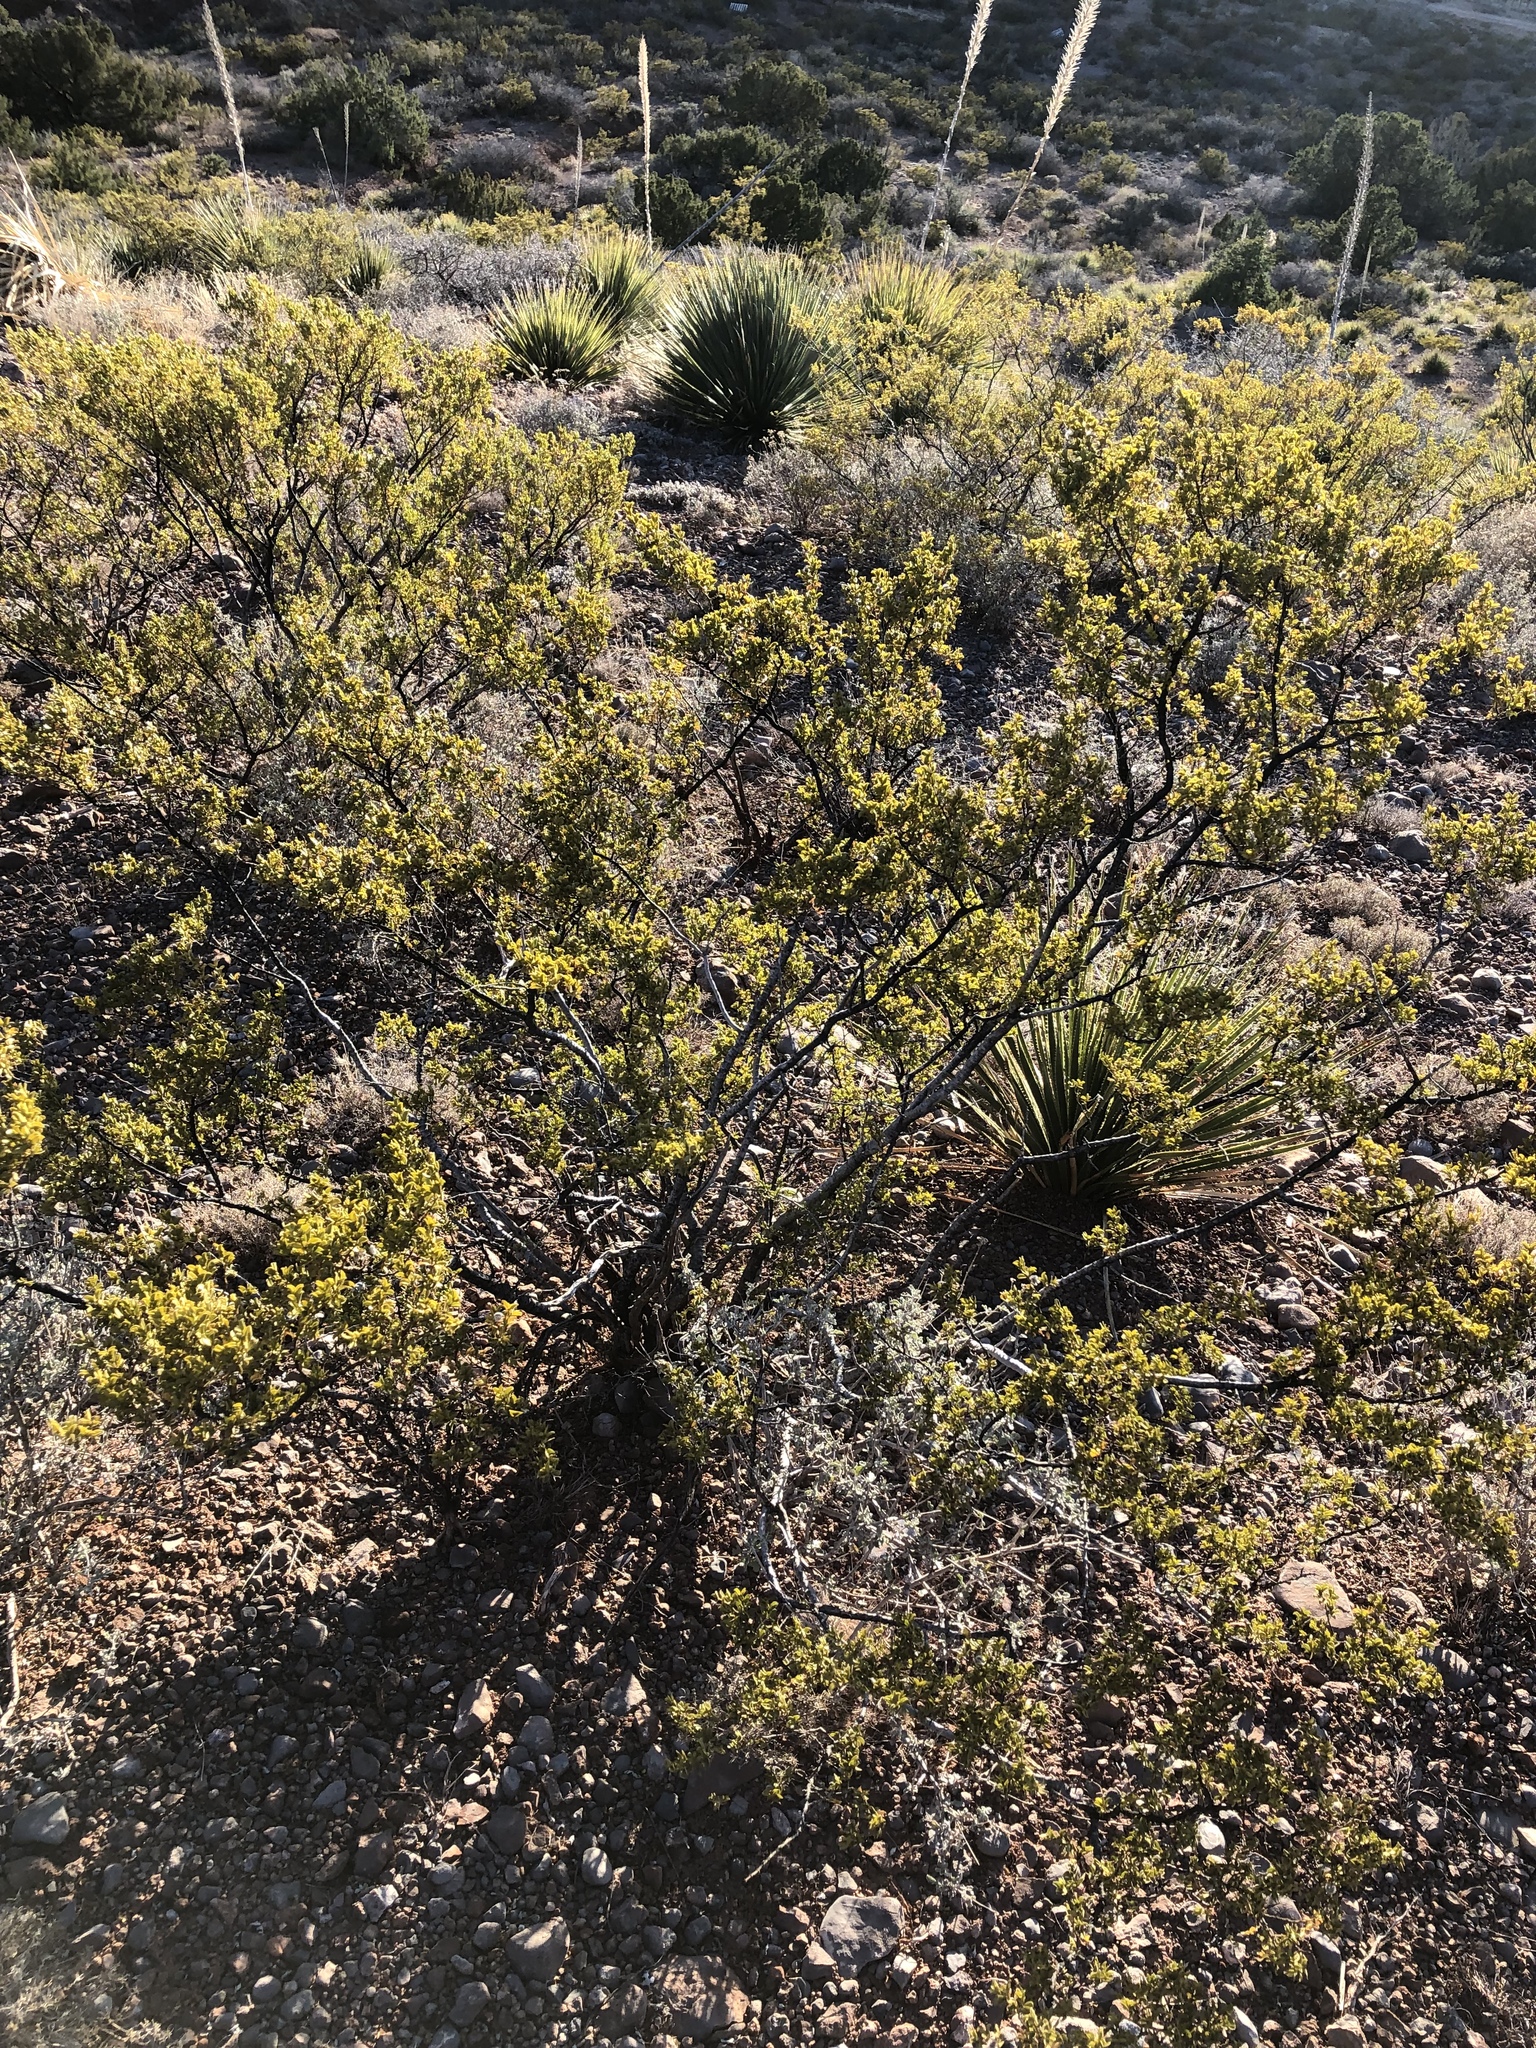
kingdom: Plantae
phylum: Tracheophyta
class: Magnoliopsida
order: Zygophyllales
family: Zygophyllaceae
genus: Larrea
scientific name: Larrea tridentata
